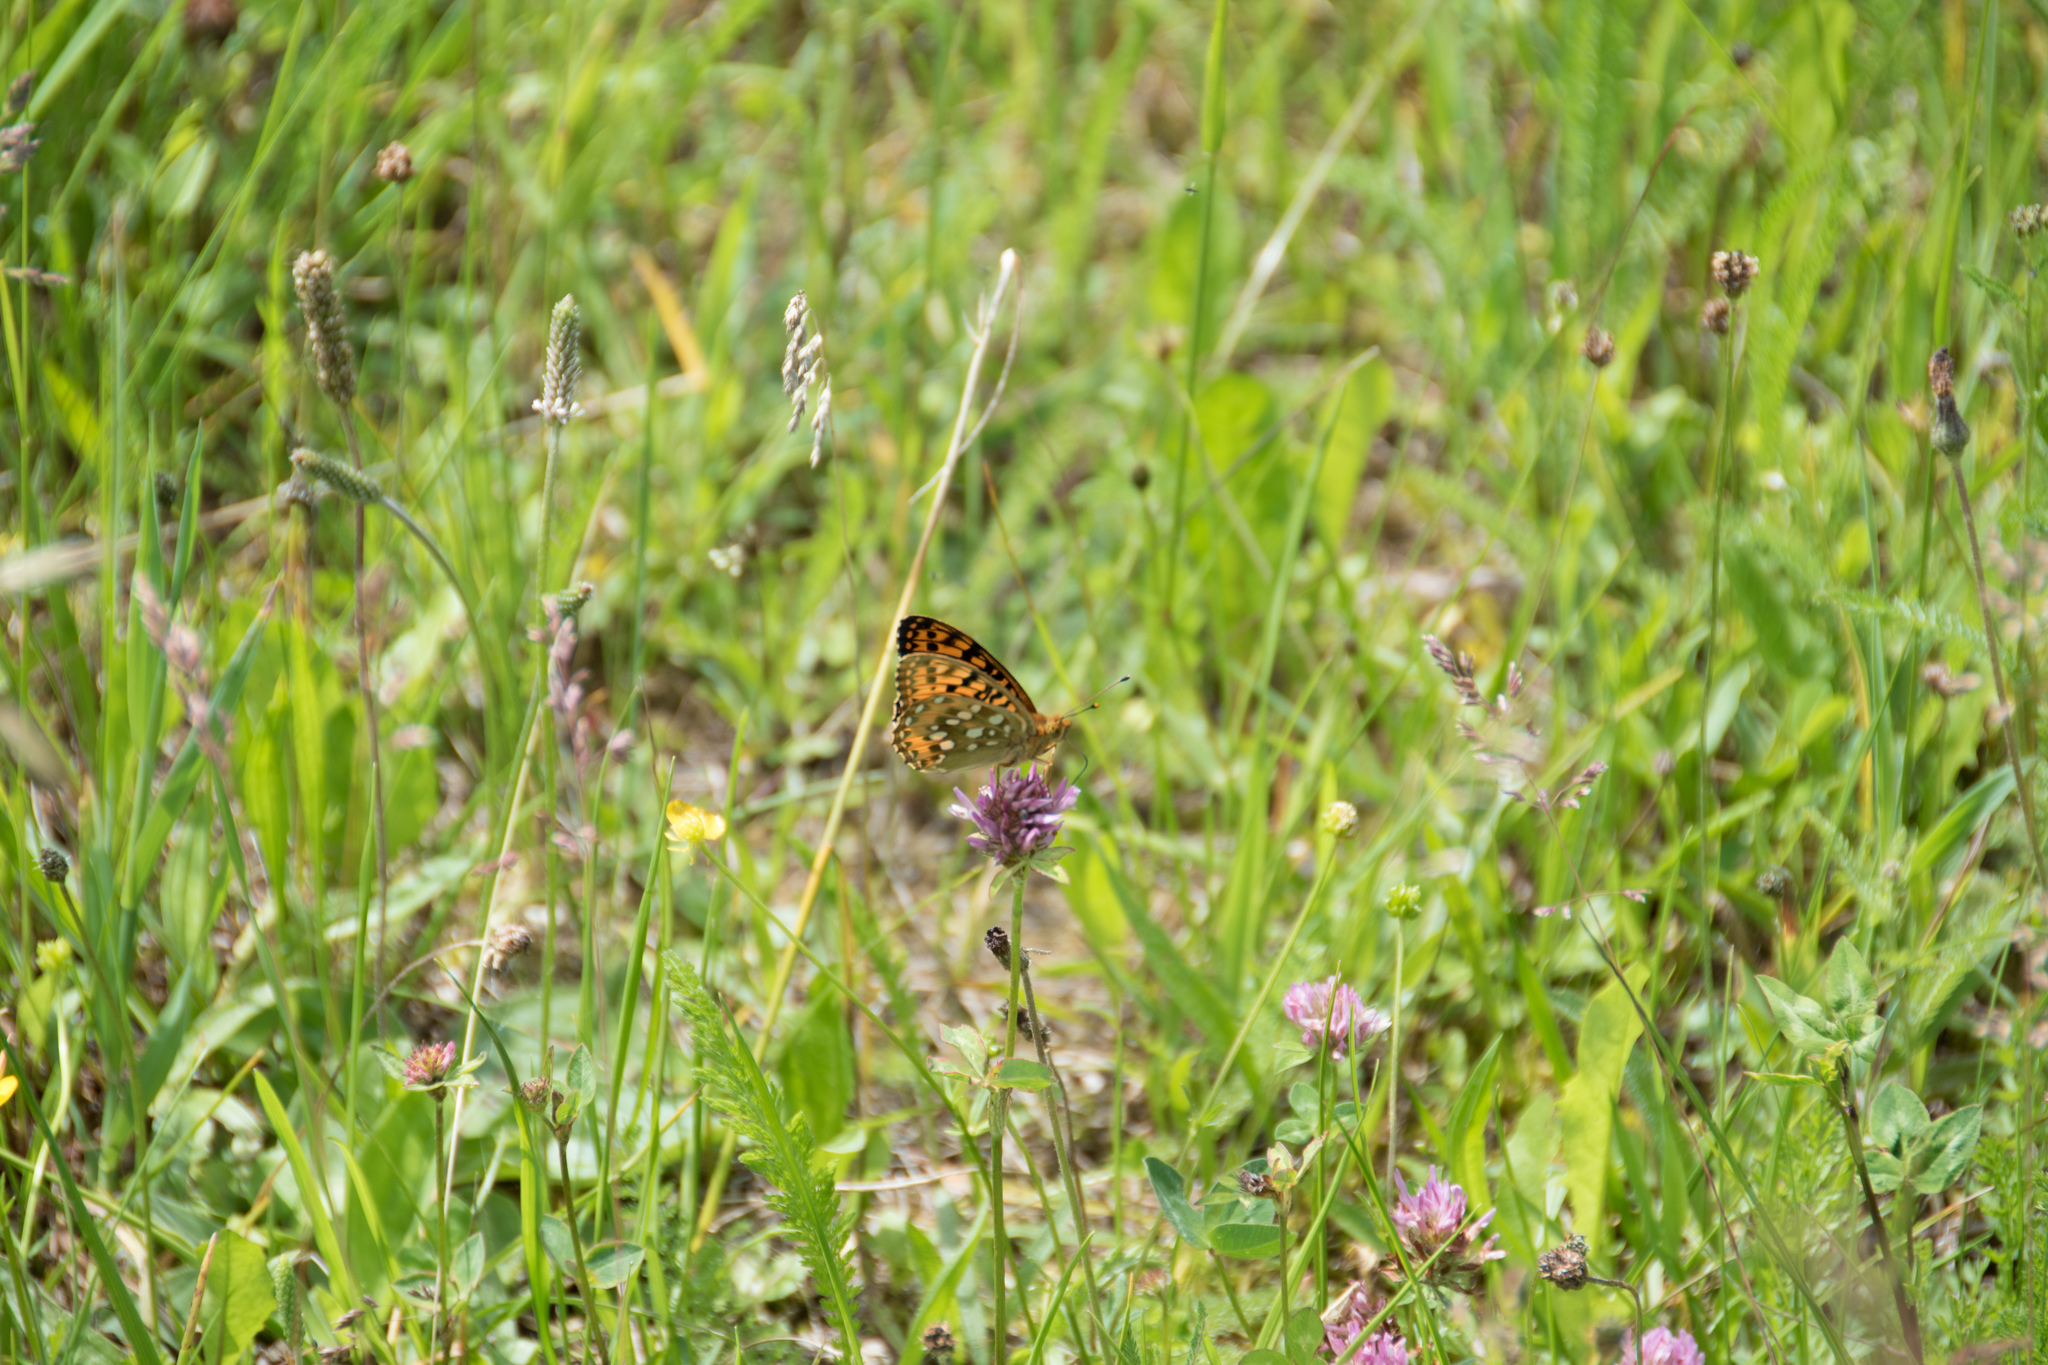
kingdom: Animalia
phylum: Arthropoda
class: Insecta
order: Lepidoptera
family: Nymphalidae
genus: Speyeria
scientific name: Speyeria aglaja
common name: Dark green fritillary
